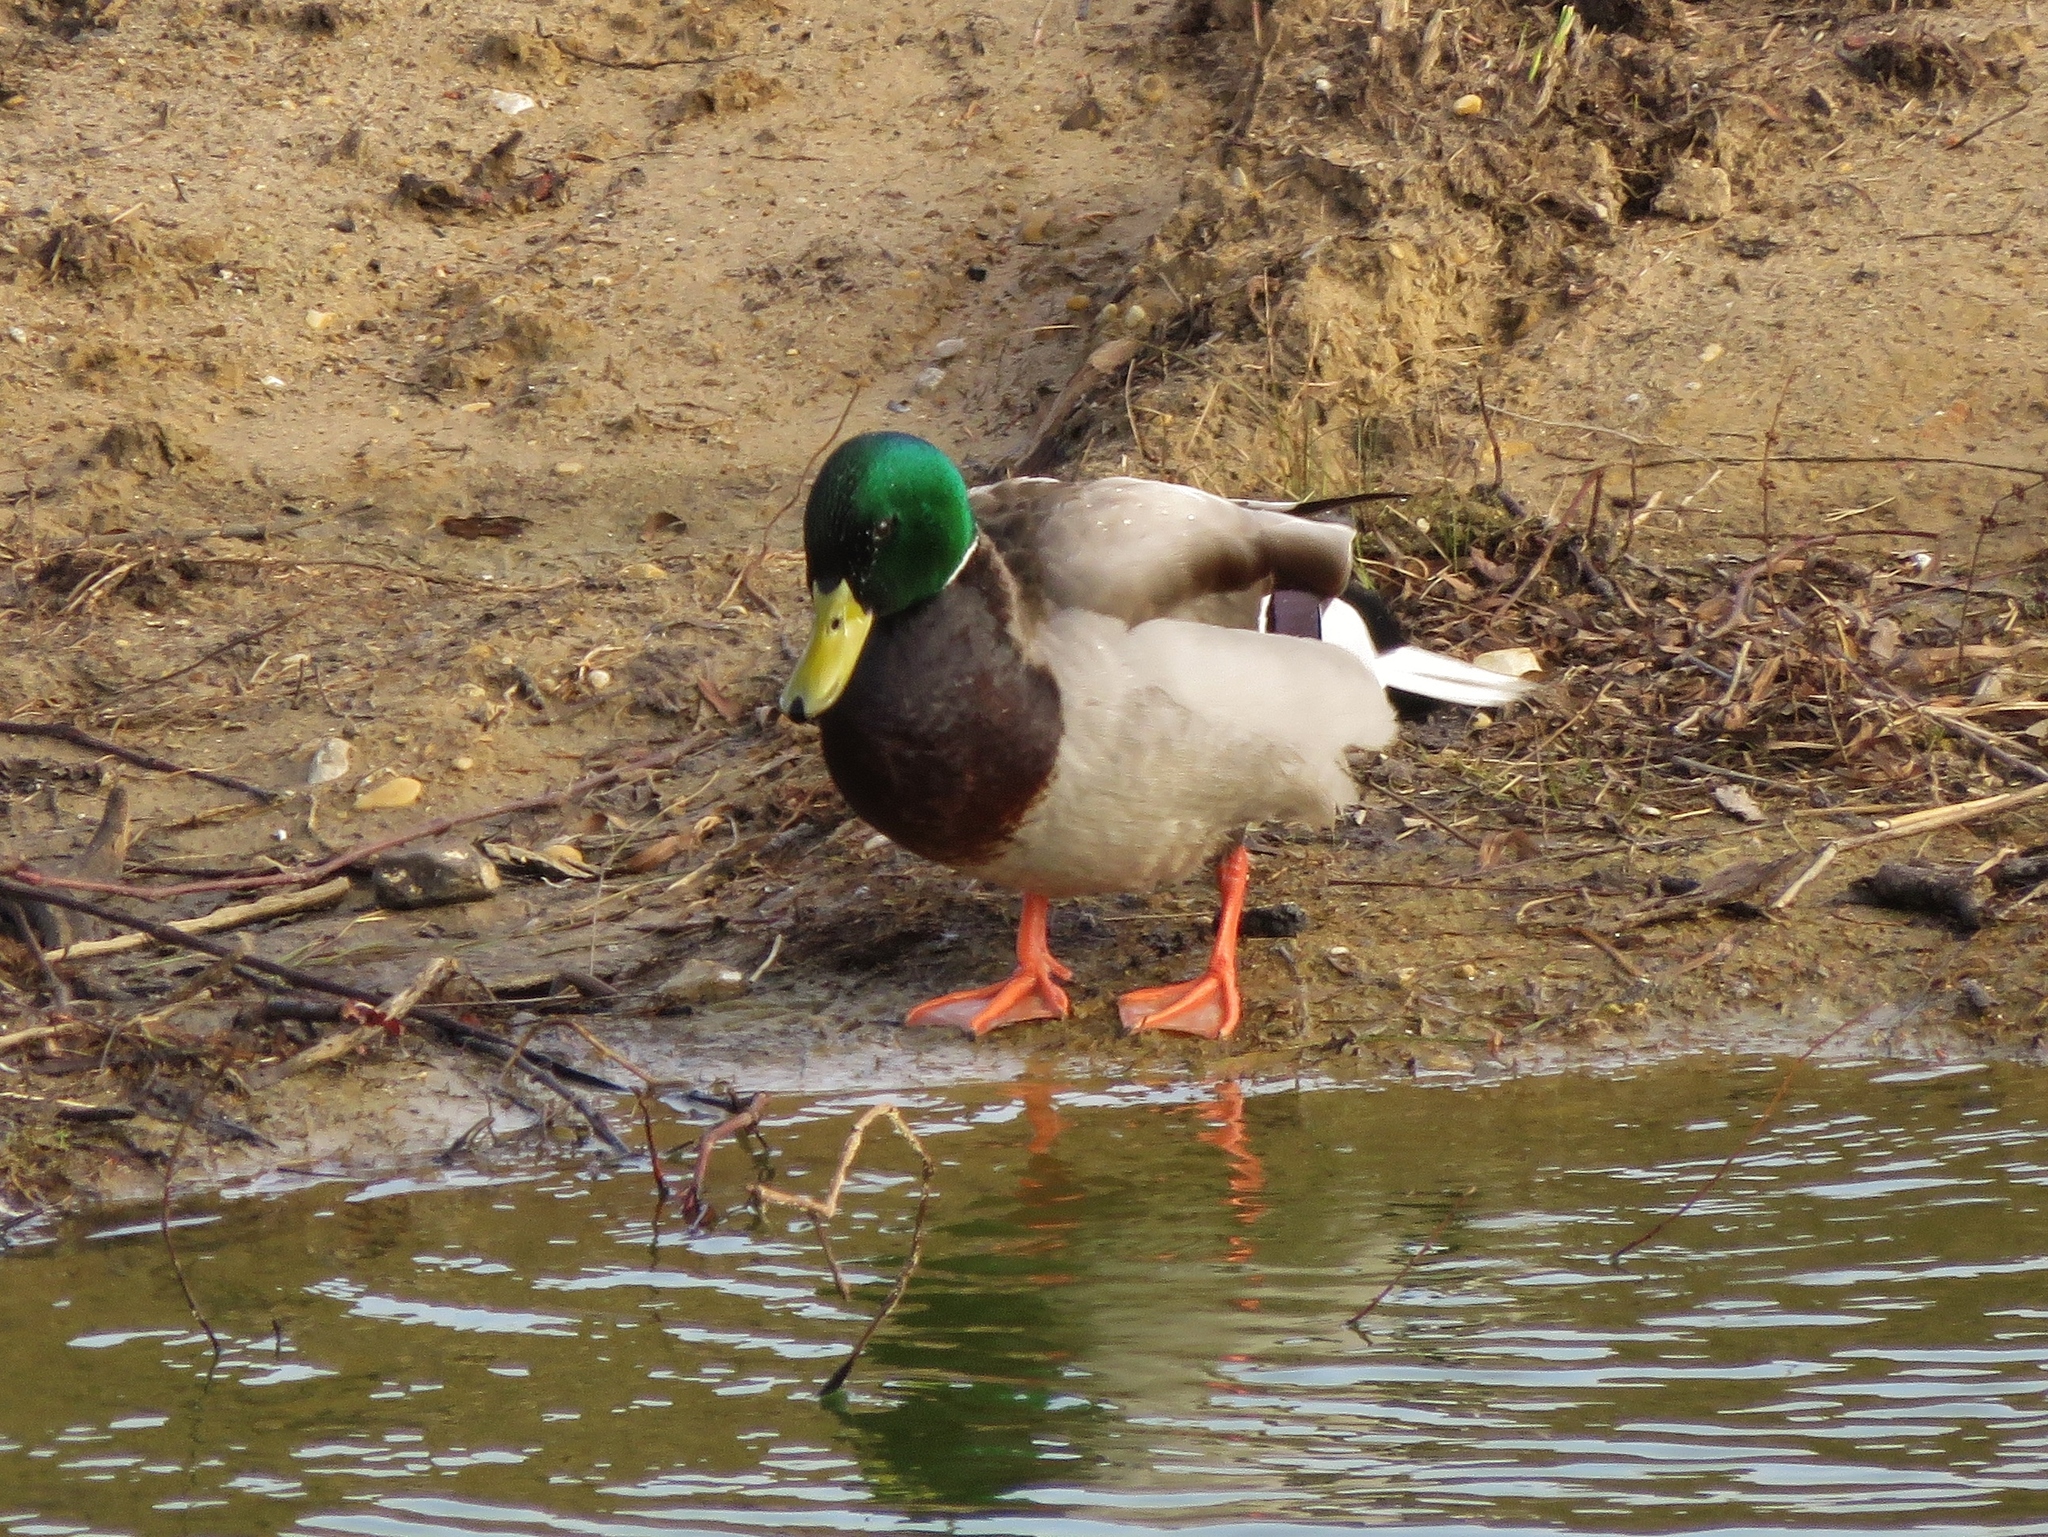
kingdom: Animalia
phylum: Chordata
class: Aves
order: Anseriformes
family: Anatidae
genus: Anas
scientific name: Anas platyrhynchos
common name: Mallard
